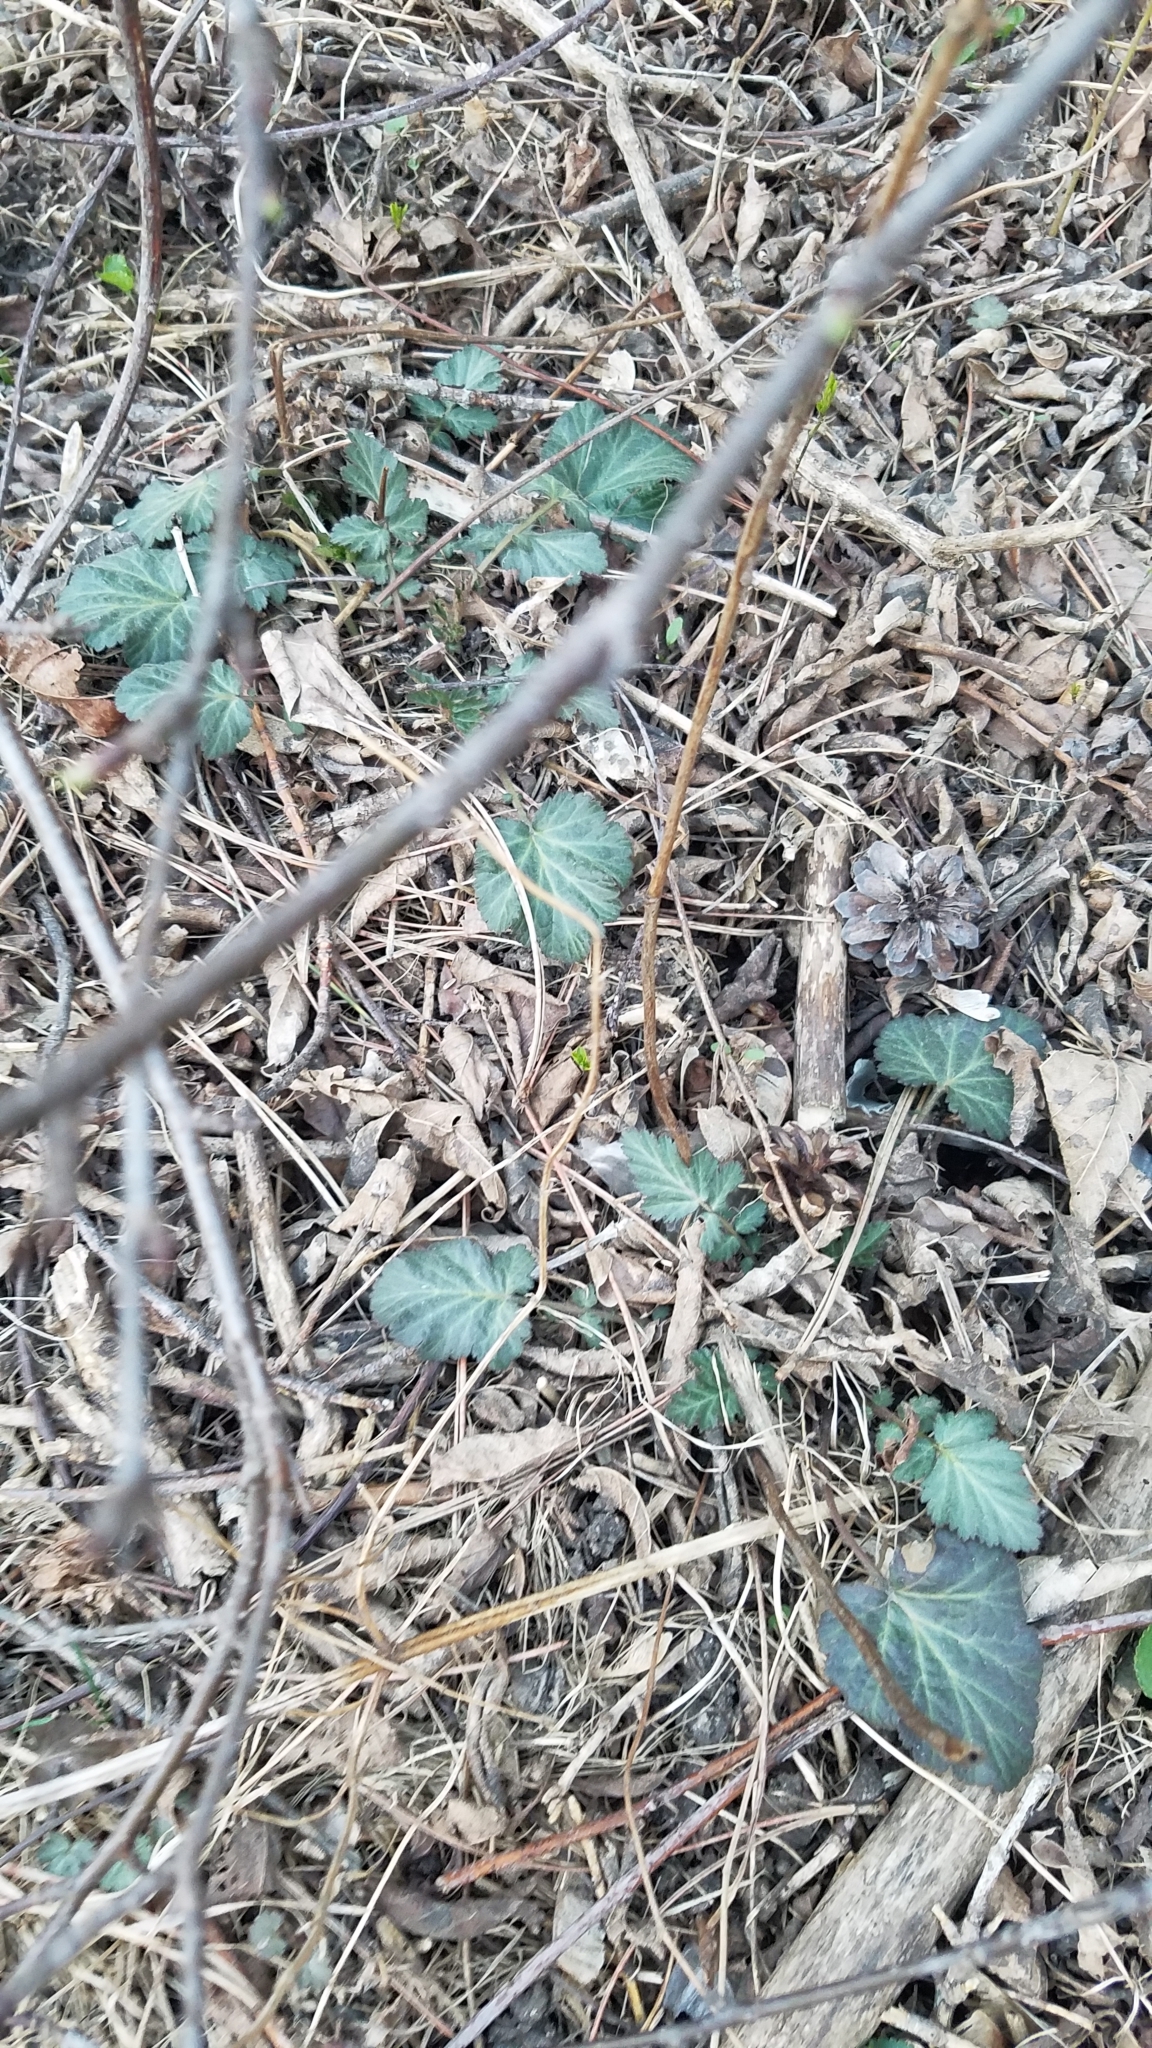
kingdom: Plantae
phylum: Tracheophyta
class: Magnoliopsida
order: Rosales
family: Rosaceae
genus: Geum
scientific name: Geum canadense
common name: White avens
